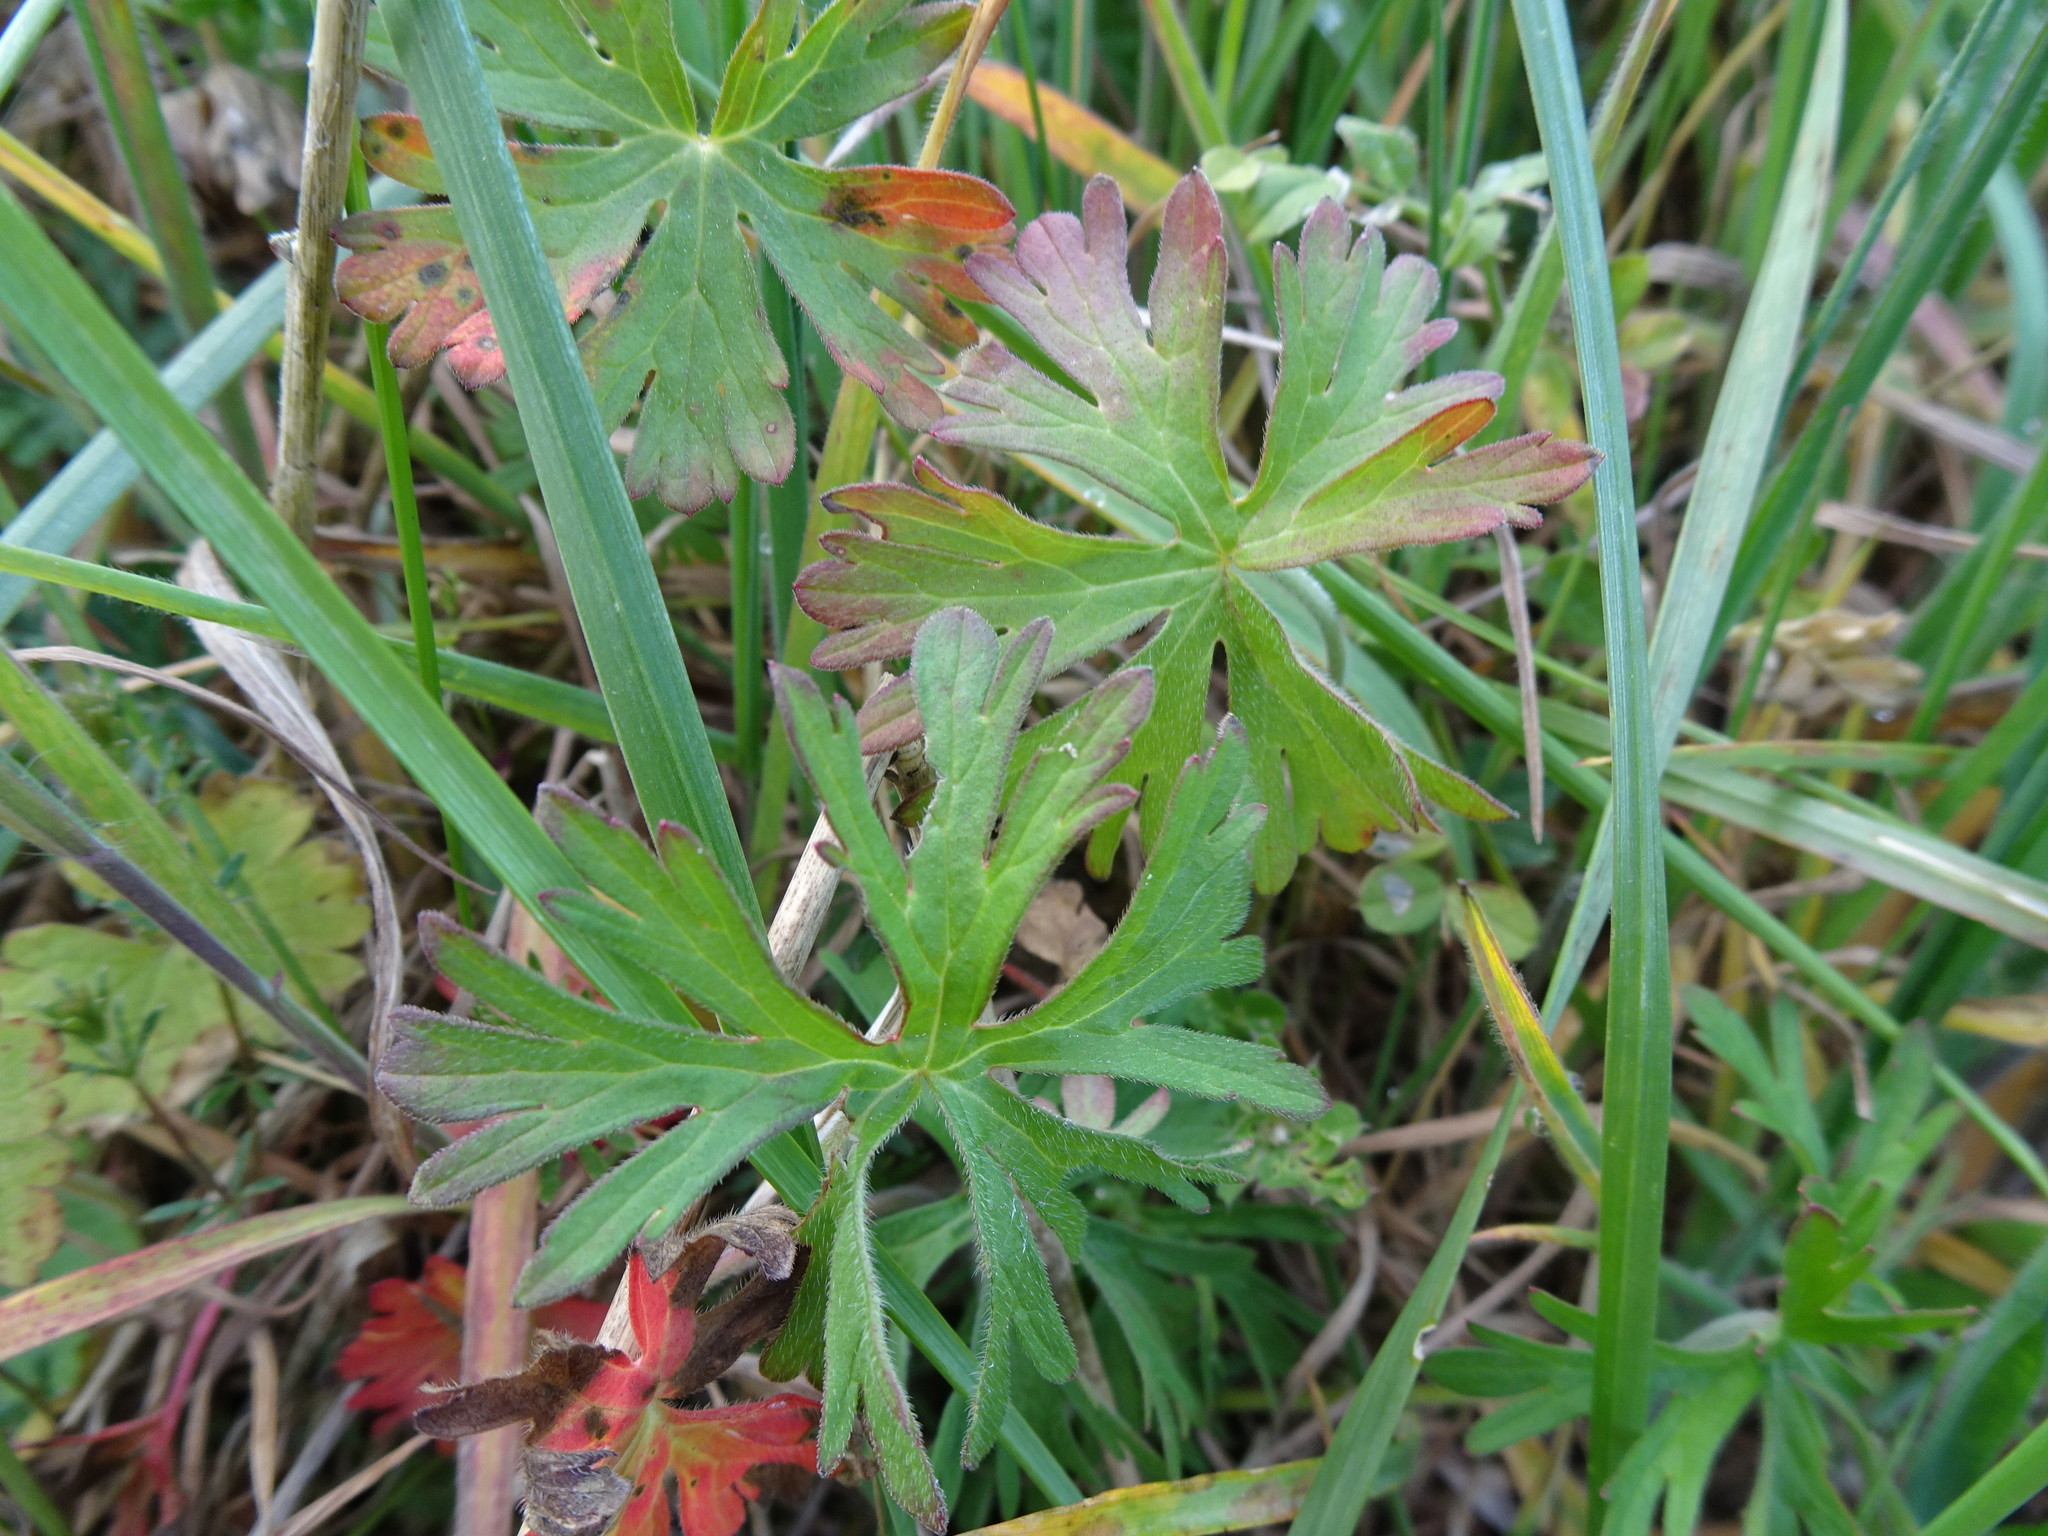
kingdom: Plantae
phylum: Tracheophyta
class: Magnoliopsida
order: Geraniales
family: Geraniaceae
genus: Geranium
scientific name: Geranium dissectum
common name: Cut-leaved crane's-bill
